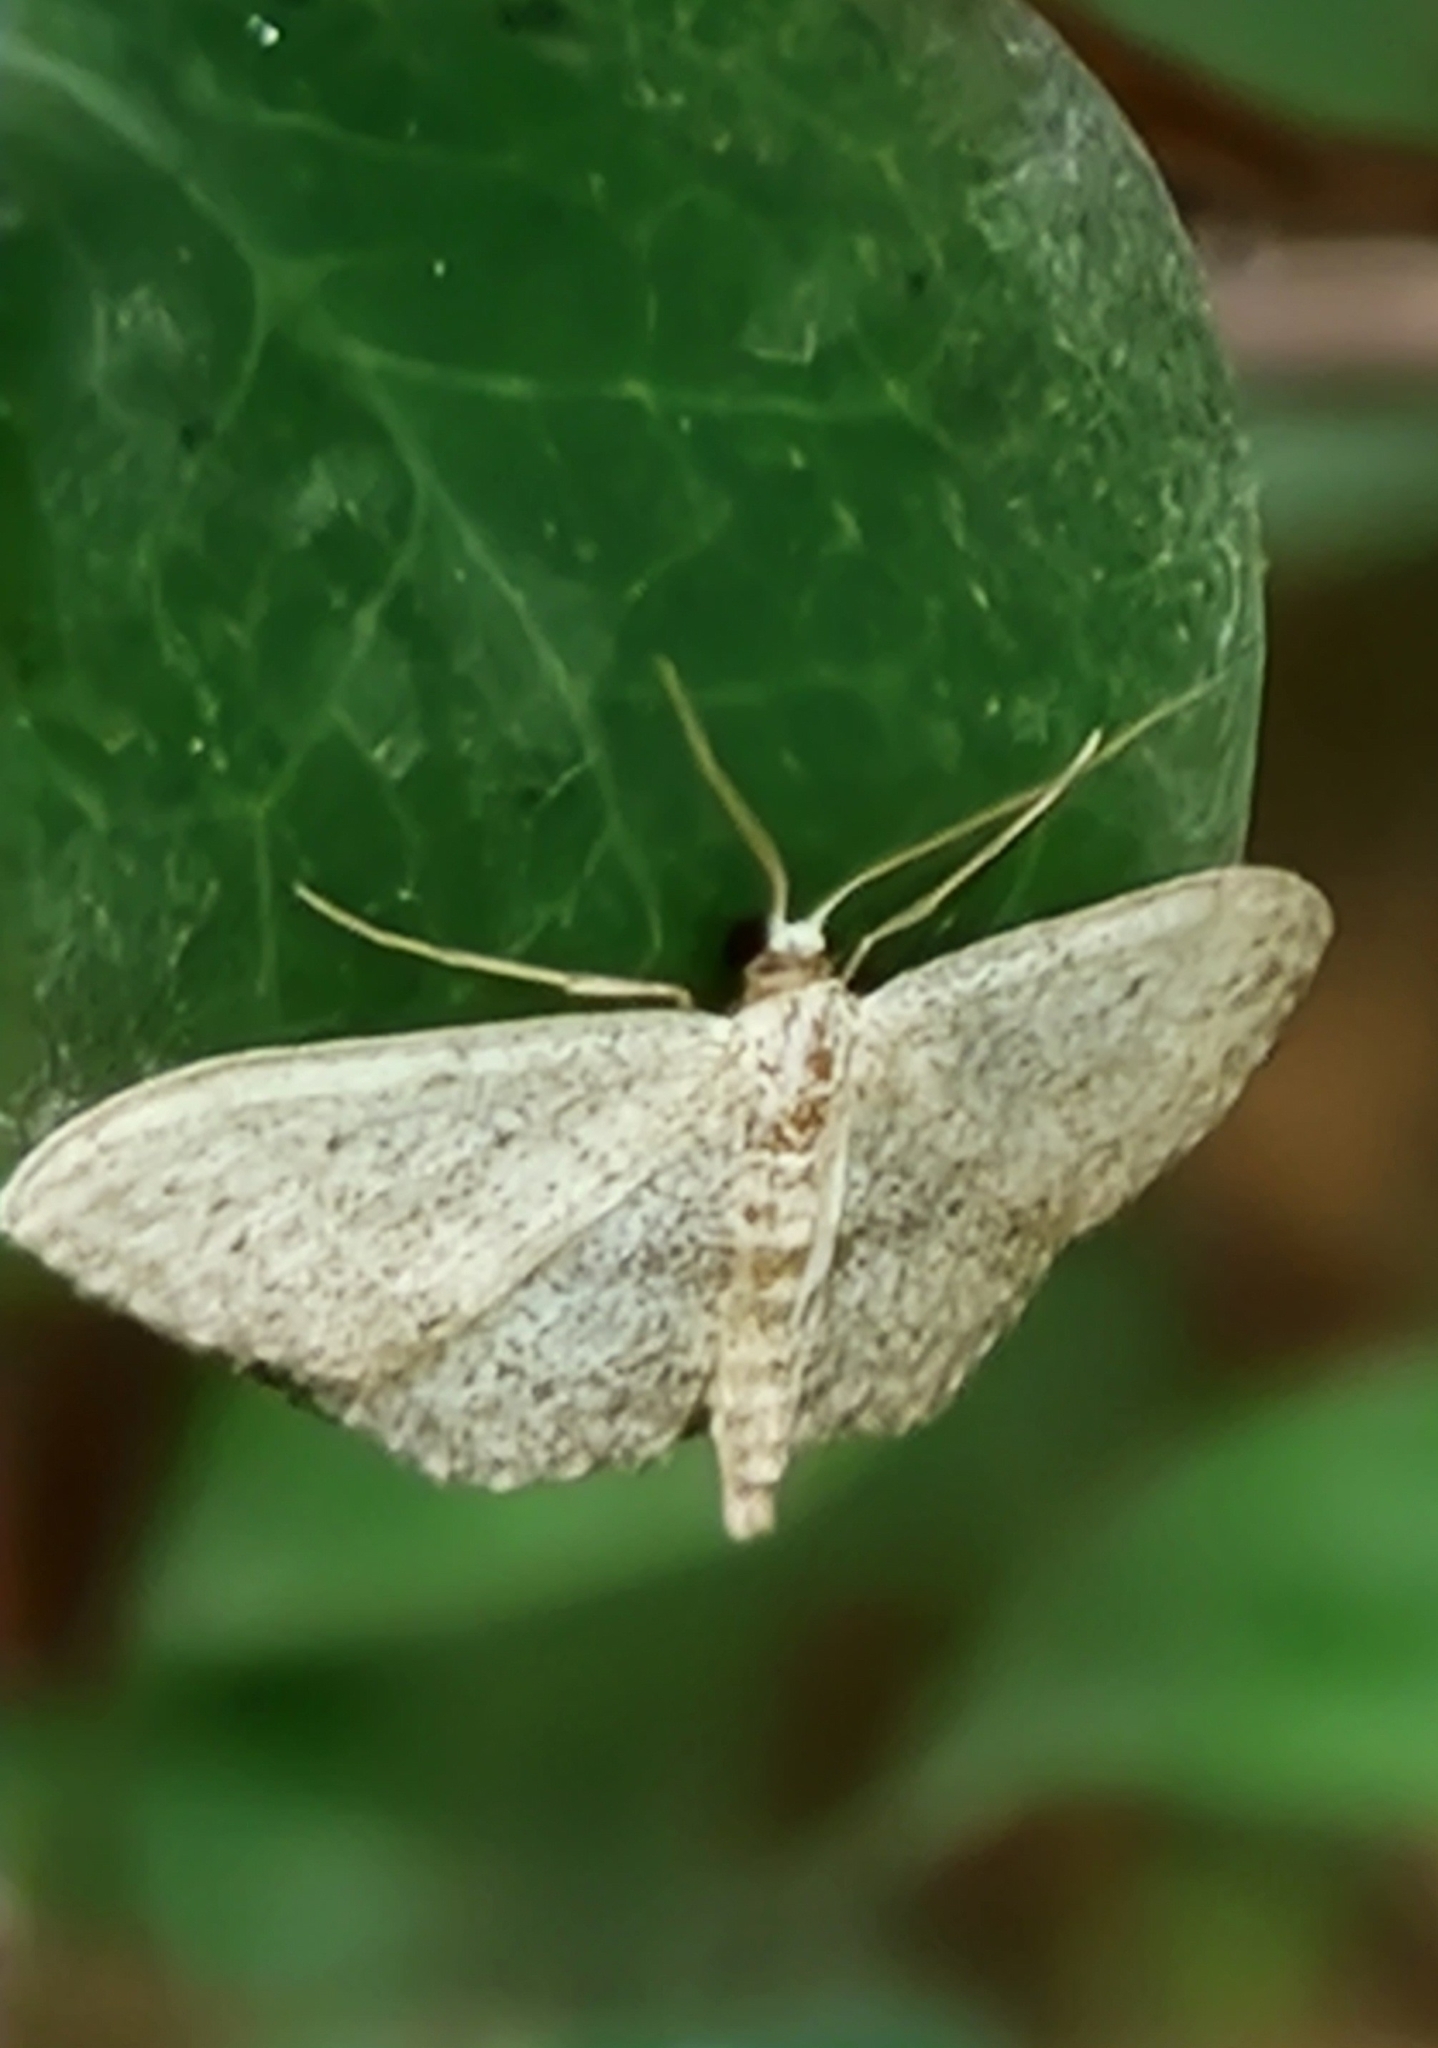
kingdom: Animalia
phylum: Arthropoda
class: Insecta
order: Lepidoptera
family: Geometridae
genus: Idaea
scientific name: Idaea seriata
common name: Small dusty wave
